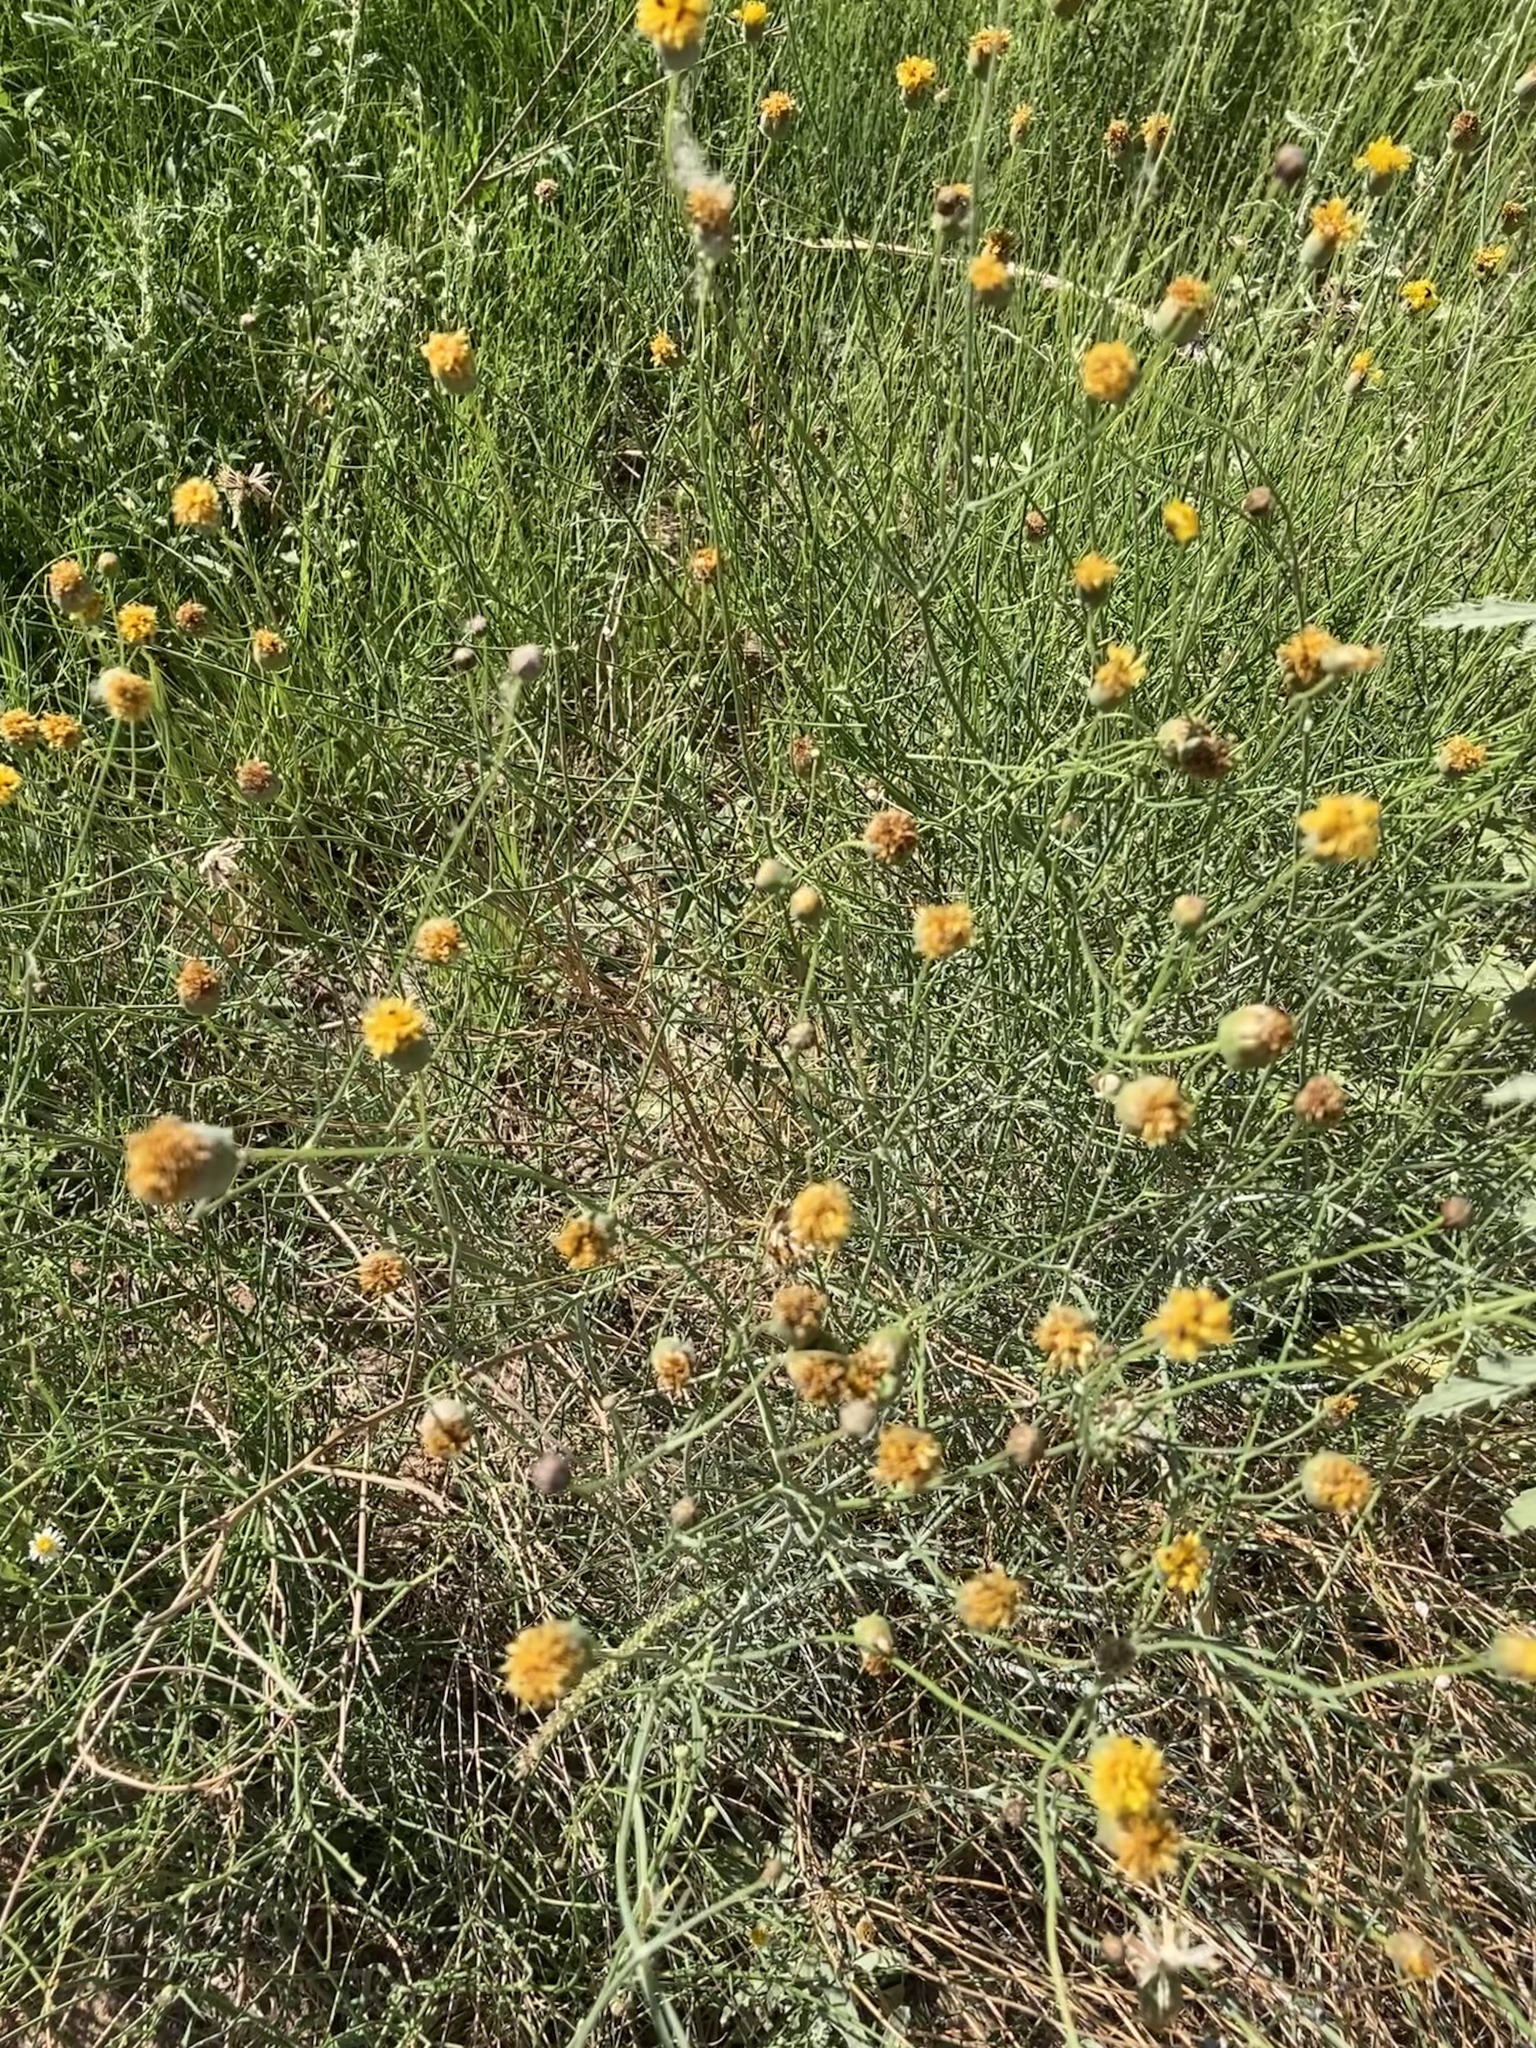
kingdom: Plantae
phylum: Tracheophyta
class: Magnoliopsida
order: Asterales
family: Asteraceae
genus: Thelesperma
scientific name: Thelesperma megapotamicum
